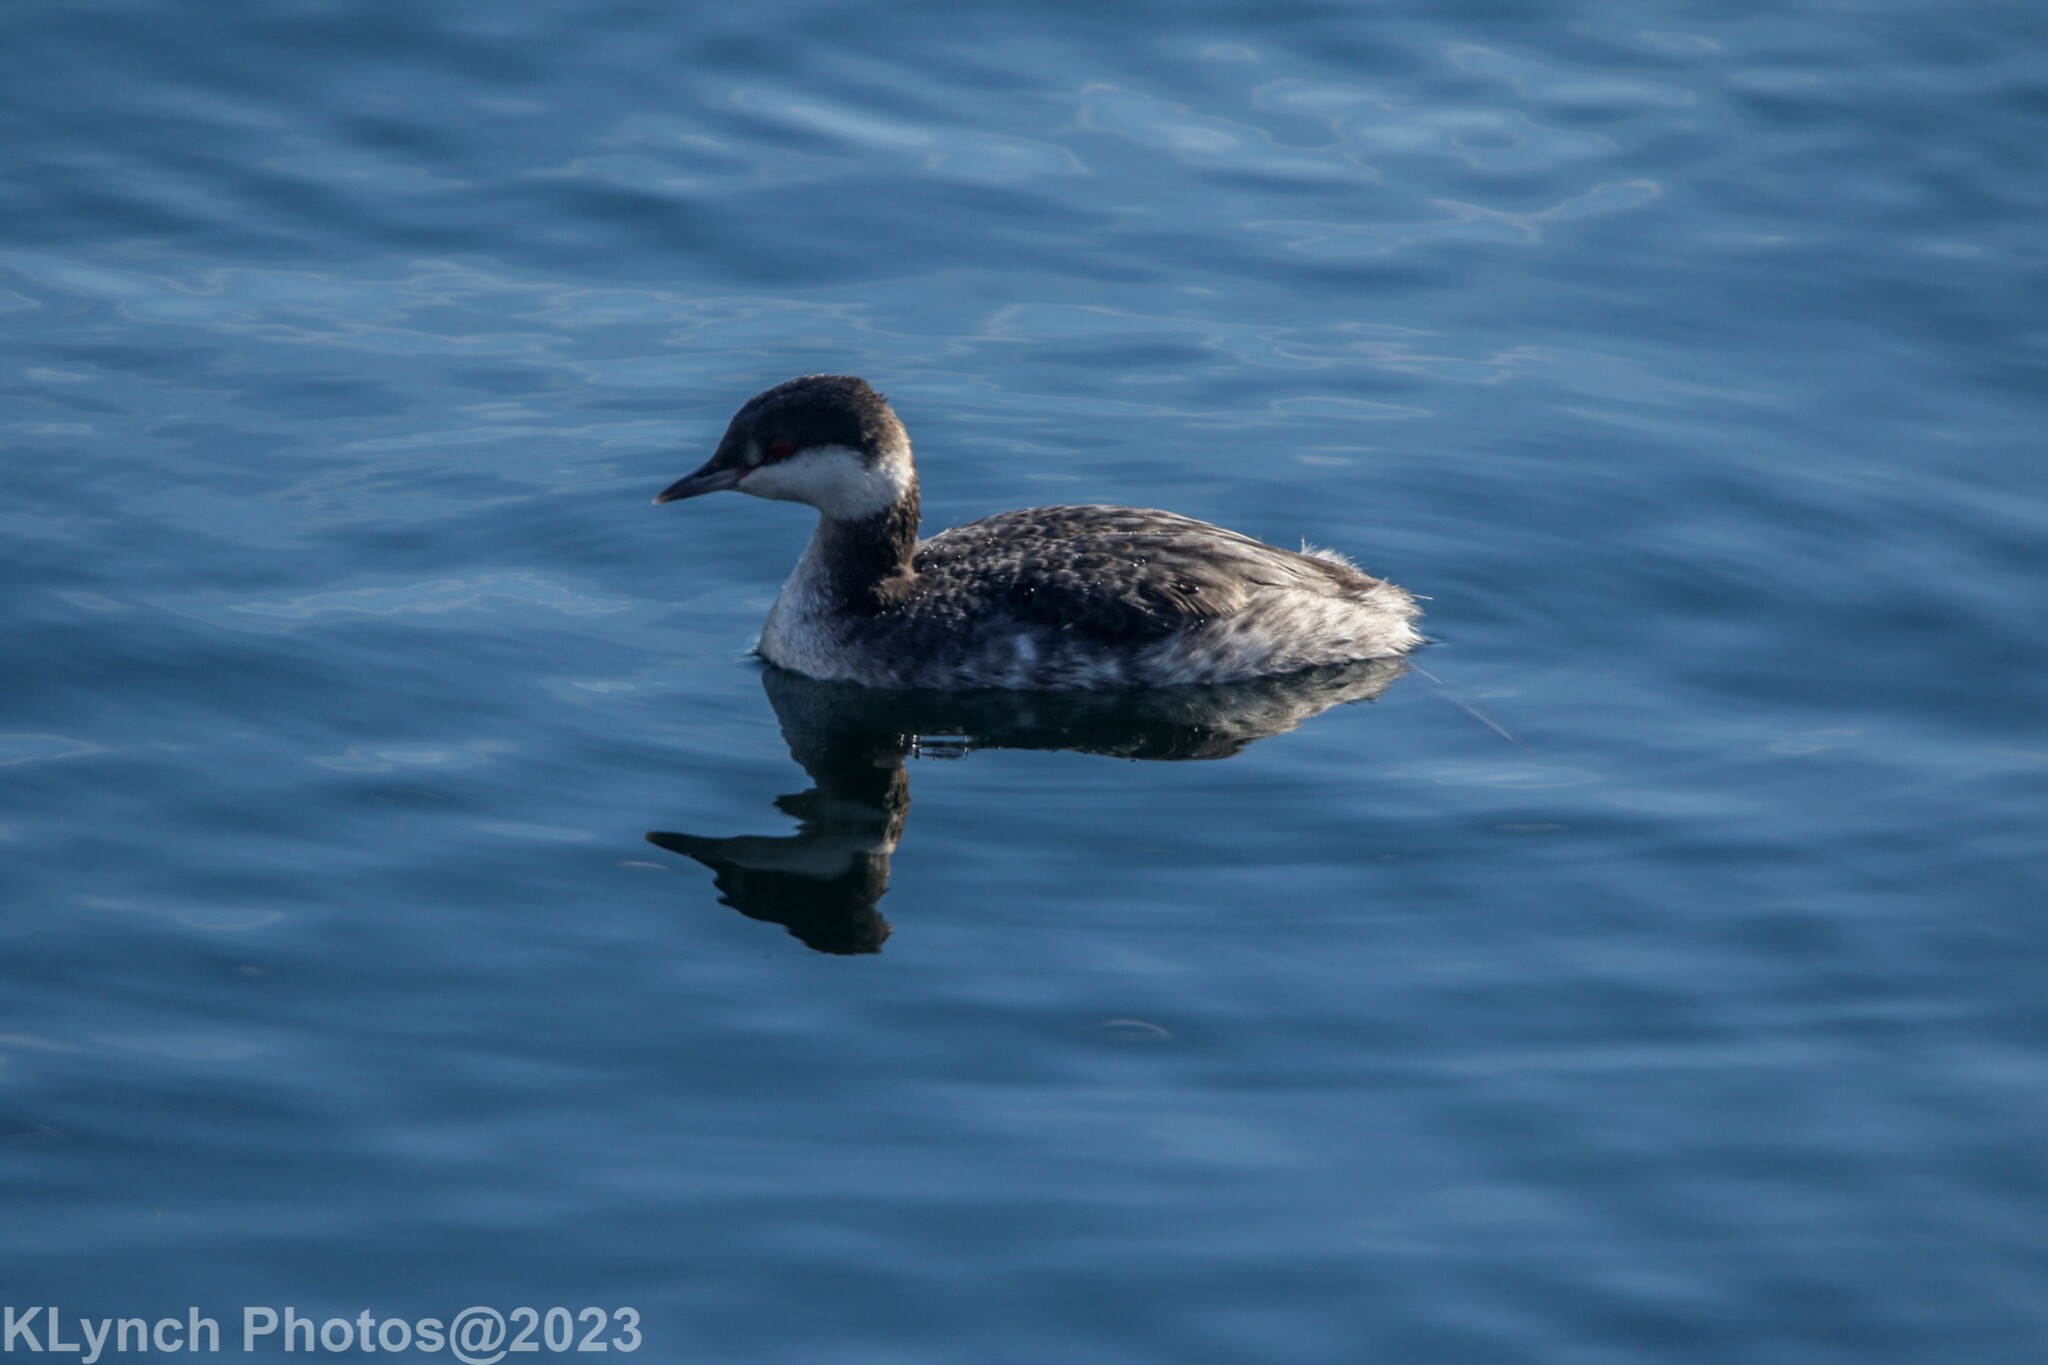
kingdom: Animalia
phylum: Chordata
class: Aves
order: Podicipediformes
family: Podicipedidae
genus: Podiceps
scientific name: Podiceps auritus
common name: Horned grebe
